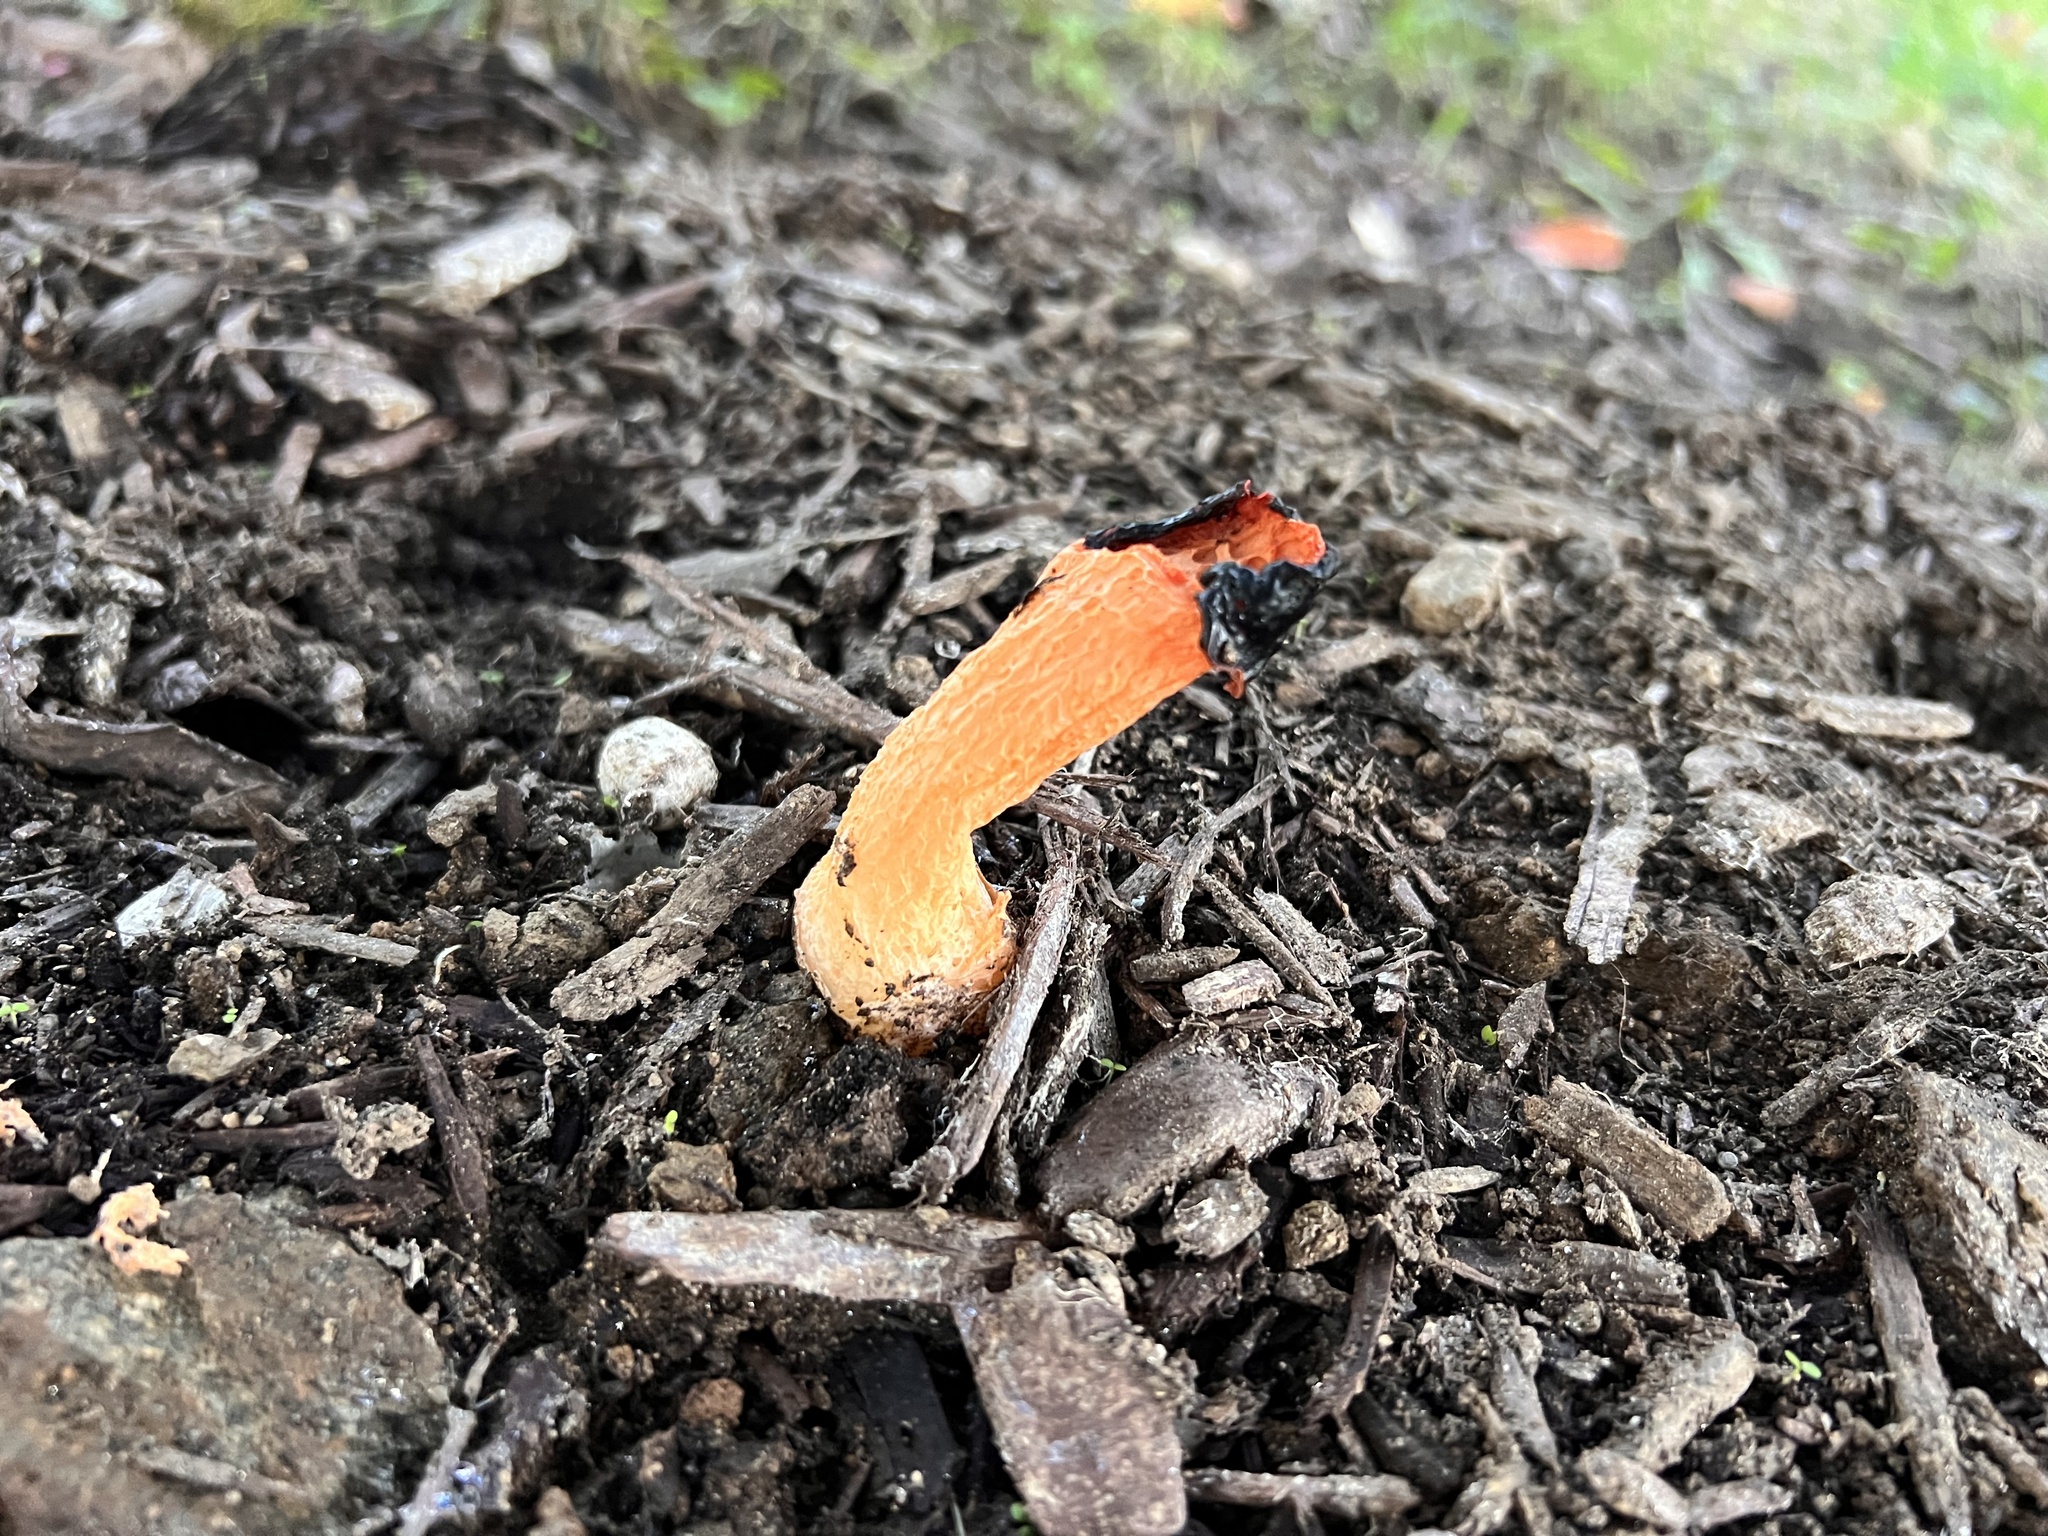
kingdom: Fungi
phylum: Basidiomycota
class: Agaricomycetes
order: Phallales
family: Phallaceae
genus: Phallus
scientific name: Phallus rugulosus
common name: Wrinkly stinkhorn
